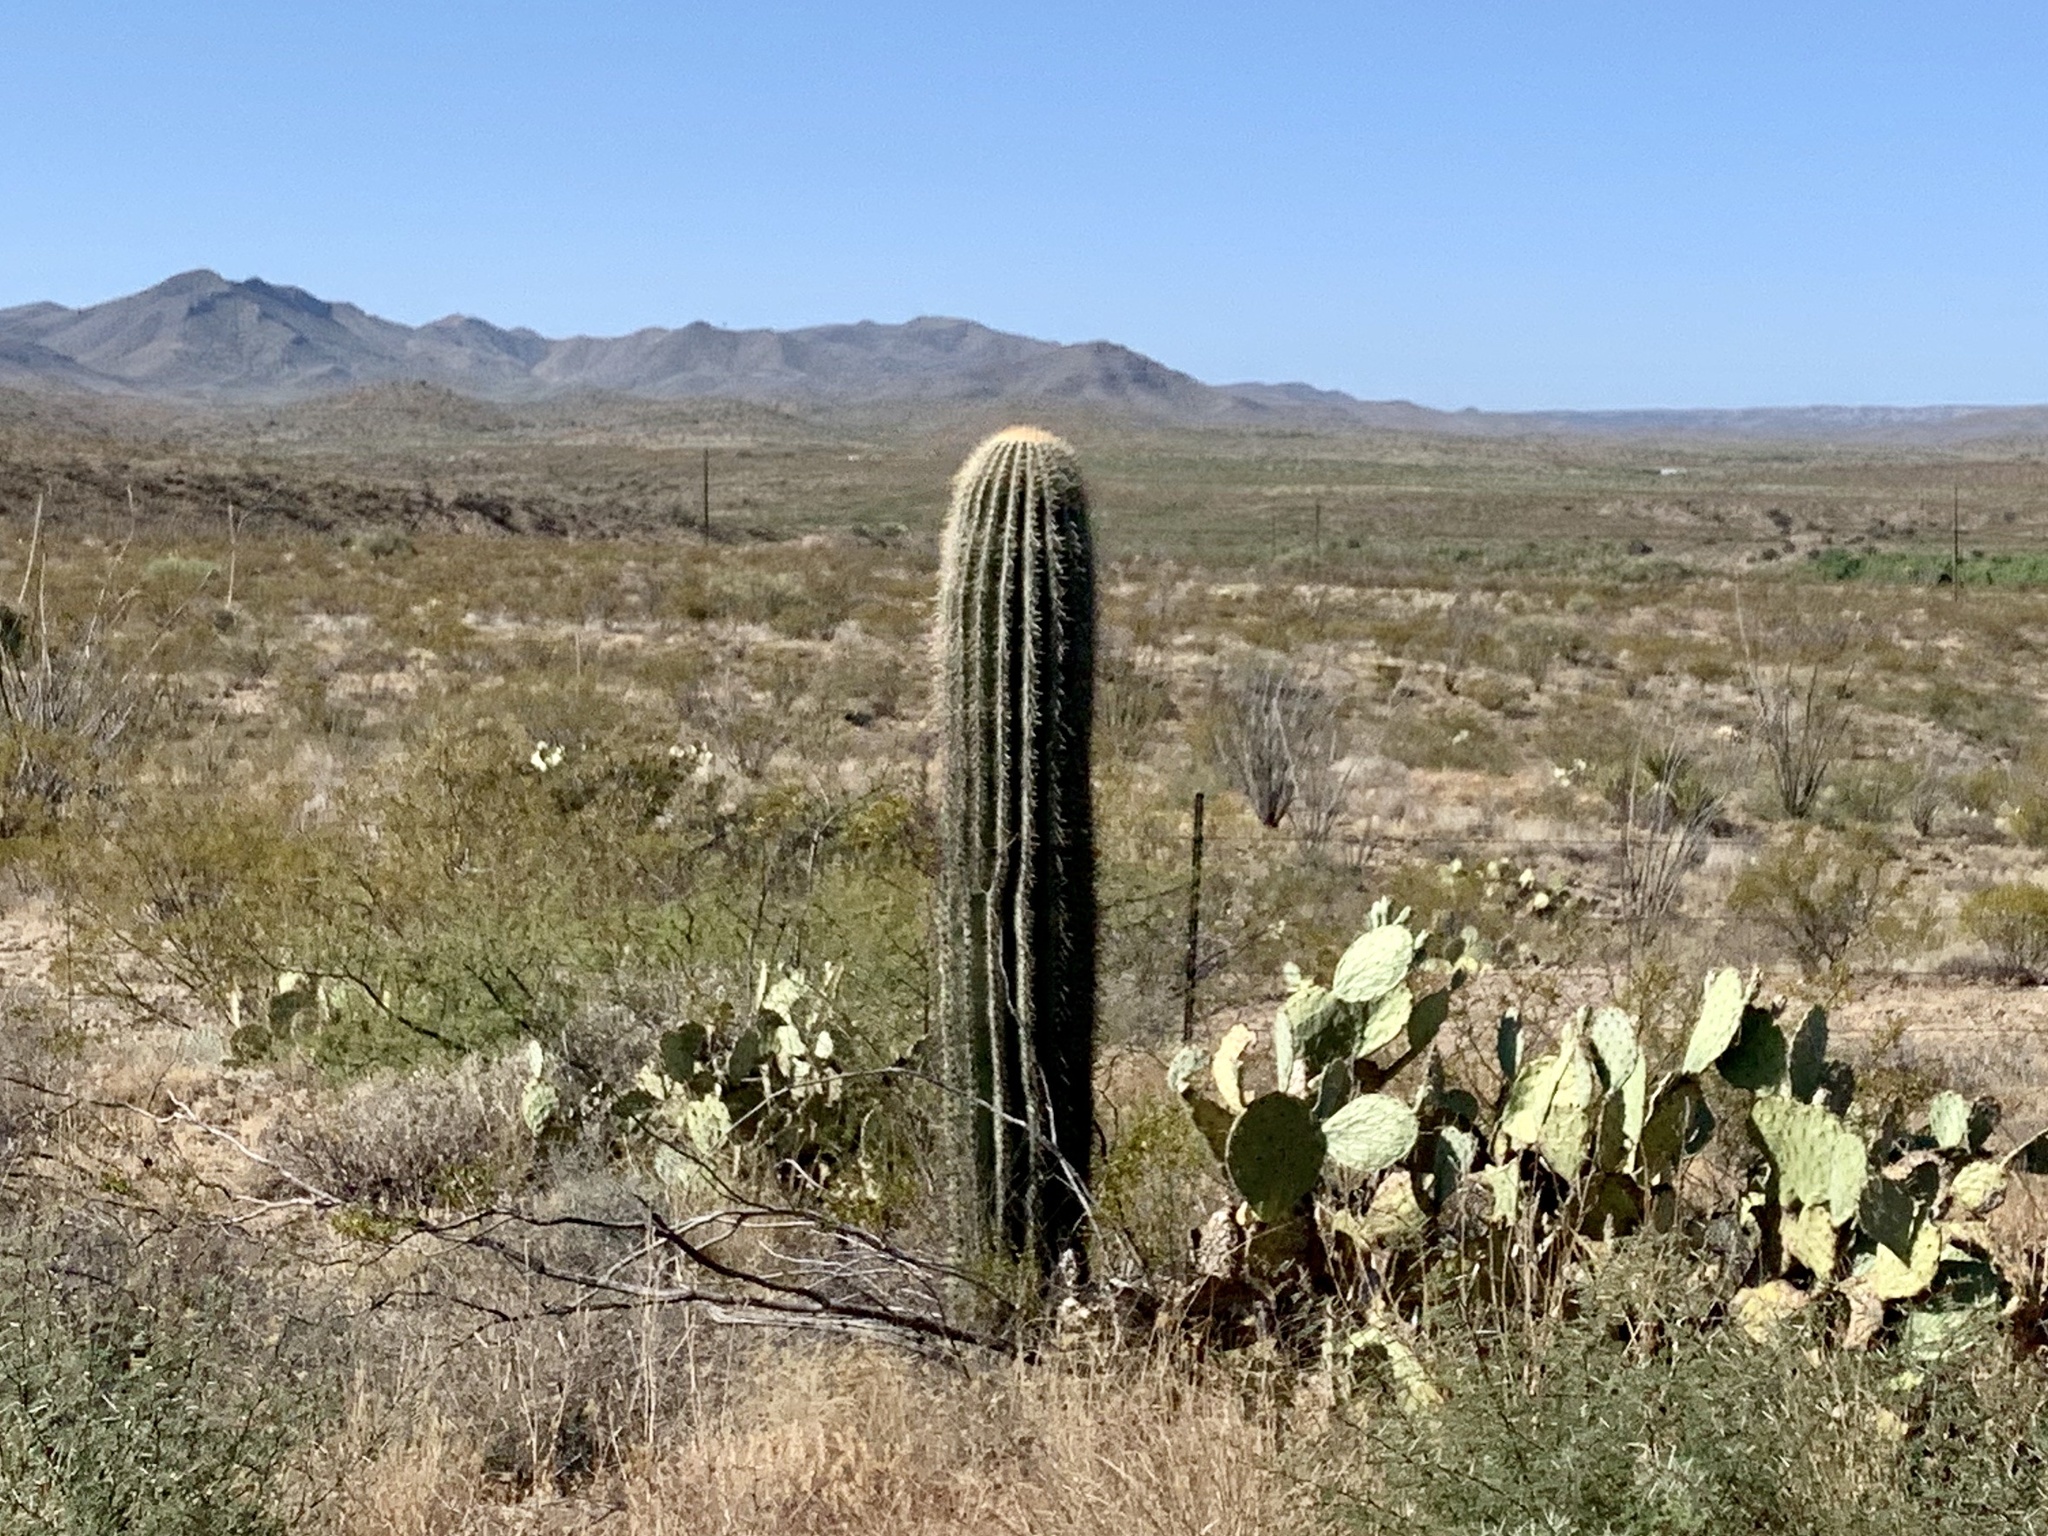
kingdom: Plantae
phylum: Tracheophyta
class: Magnoliopsida
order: Caryophyllales
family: Cactaceae
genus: Carnegiea
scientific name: Carnegiea gigantea
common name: Saguaro
